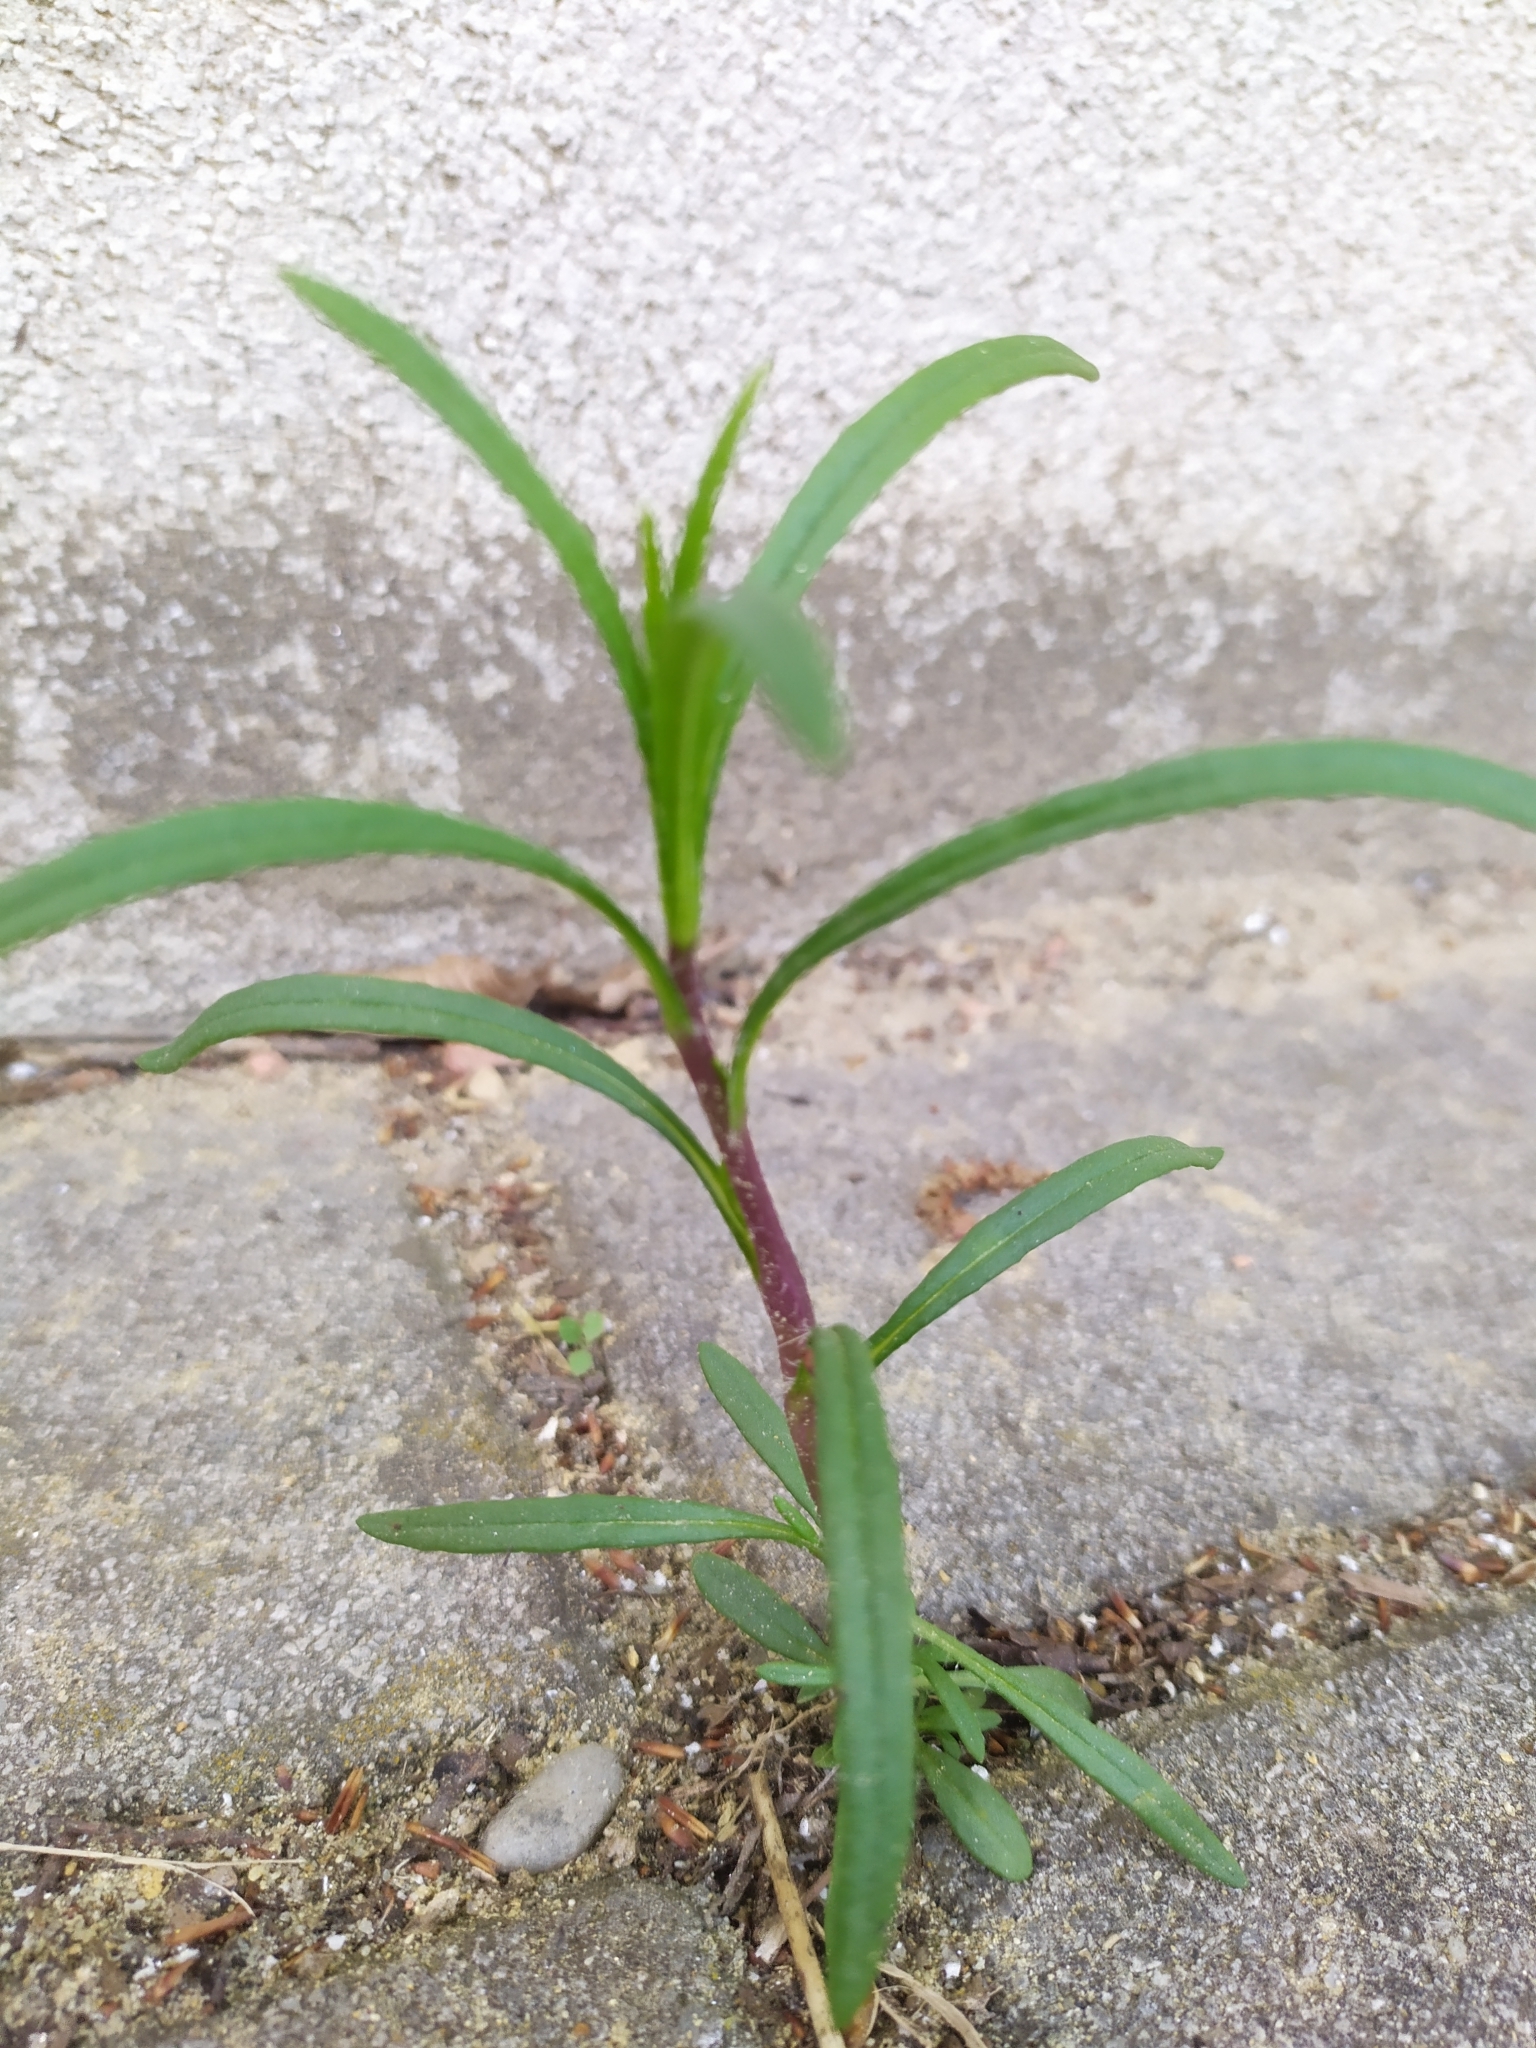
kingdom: Plantae
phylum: Tracheophyta
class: Magnoliopsida
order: Asterales
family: Asteraceae
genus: Senecio
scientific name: Senecio inaequidens
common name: Narrow-leaved ragwort
